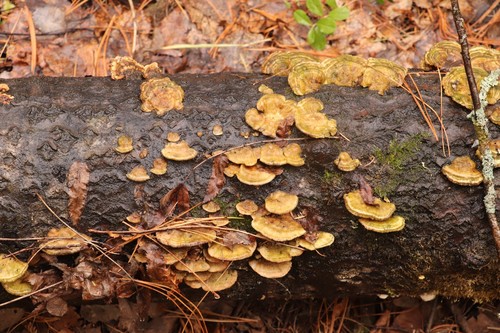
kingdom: Fungi
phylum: Basidiomycota
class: Agaricomycetes
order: Polyporales
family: Polyporaceae
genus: Trametes
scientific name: Trametes ochracea
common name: Ochre bracket
